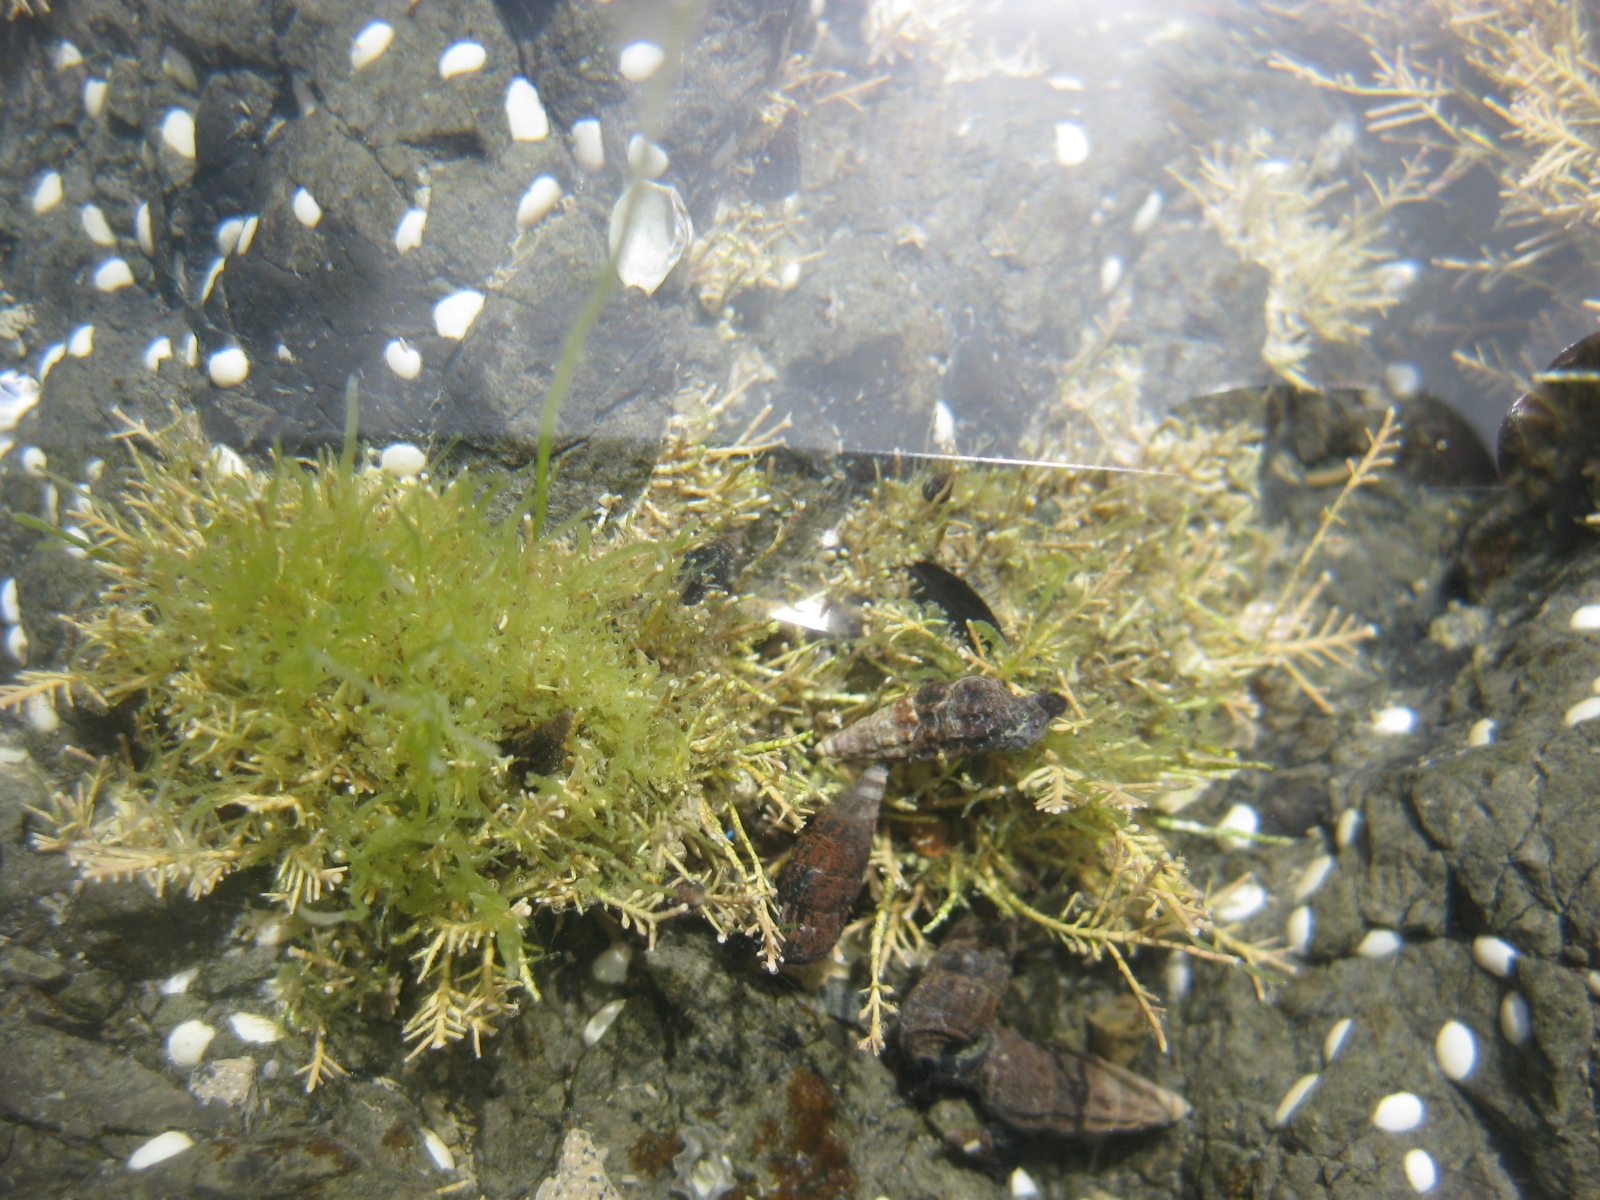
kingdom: Animalia
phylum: Mollusca
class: Gastropoda
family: Batillariidae
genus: Zeacumantus
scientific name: Zeacumantus subcarinatus
